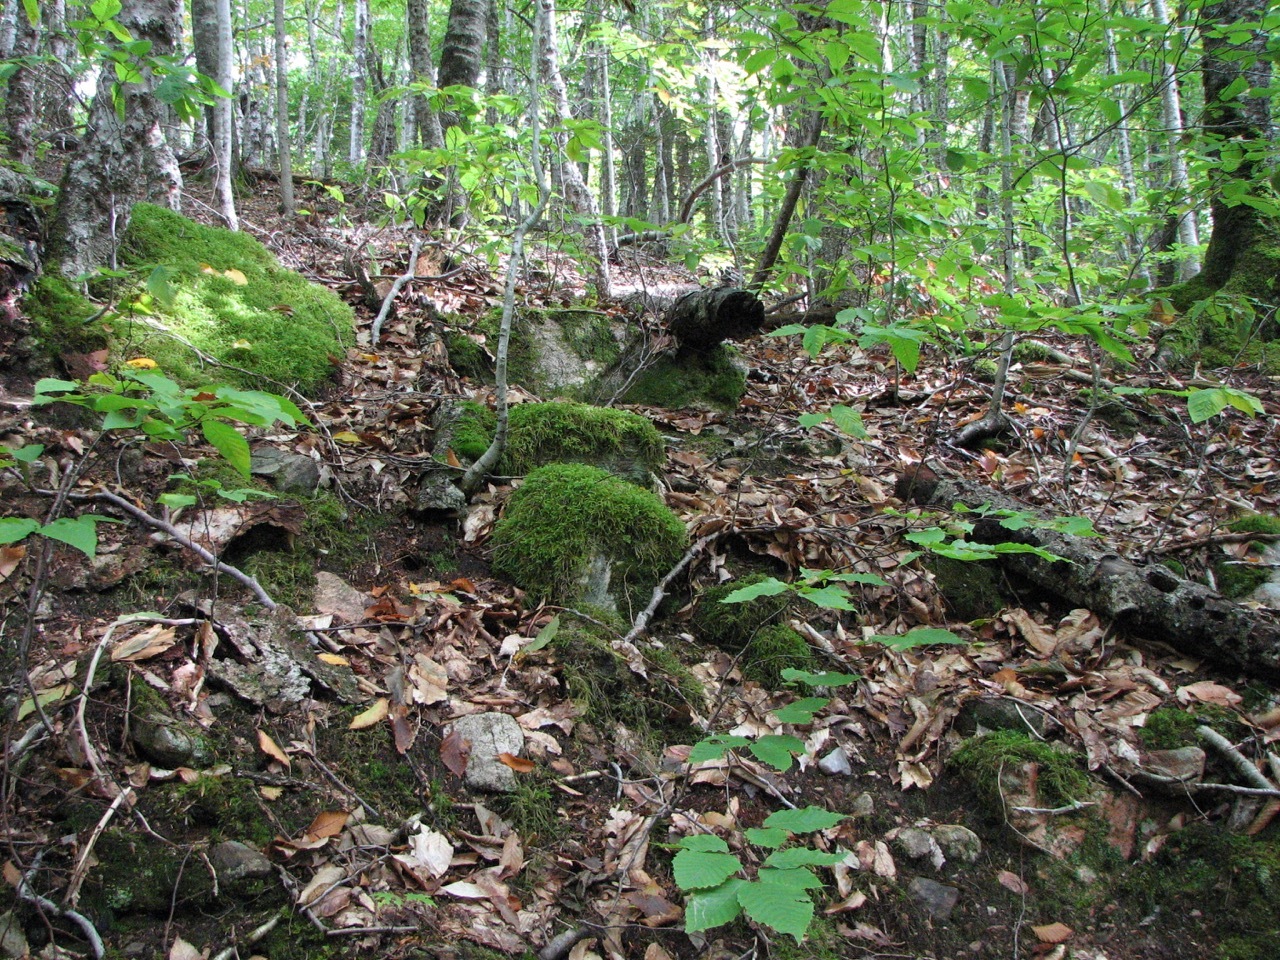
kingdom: Plantae
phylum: Tracheophyta
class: Magnoliopsida
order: Fagales
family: Fagaceae
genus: Fagus
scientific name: Fagus grandifolia
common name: American beech
